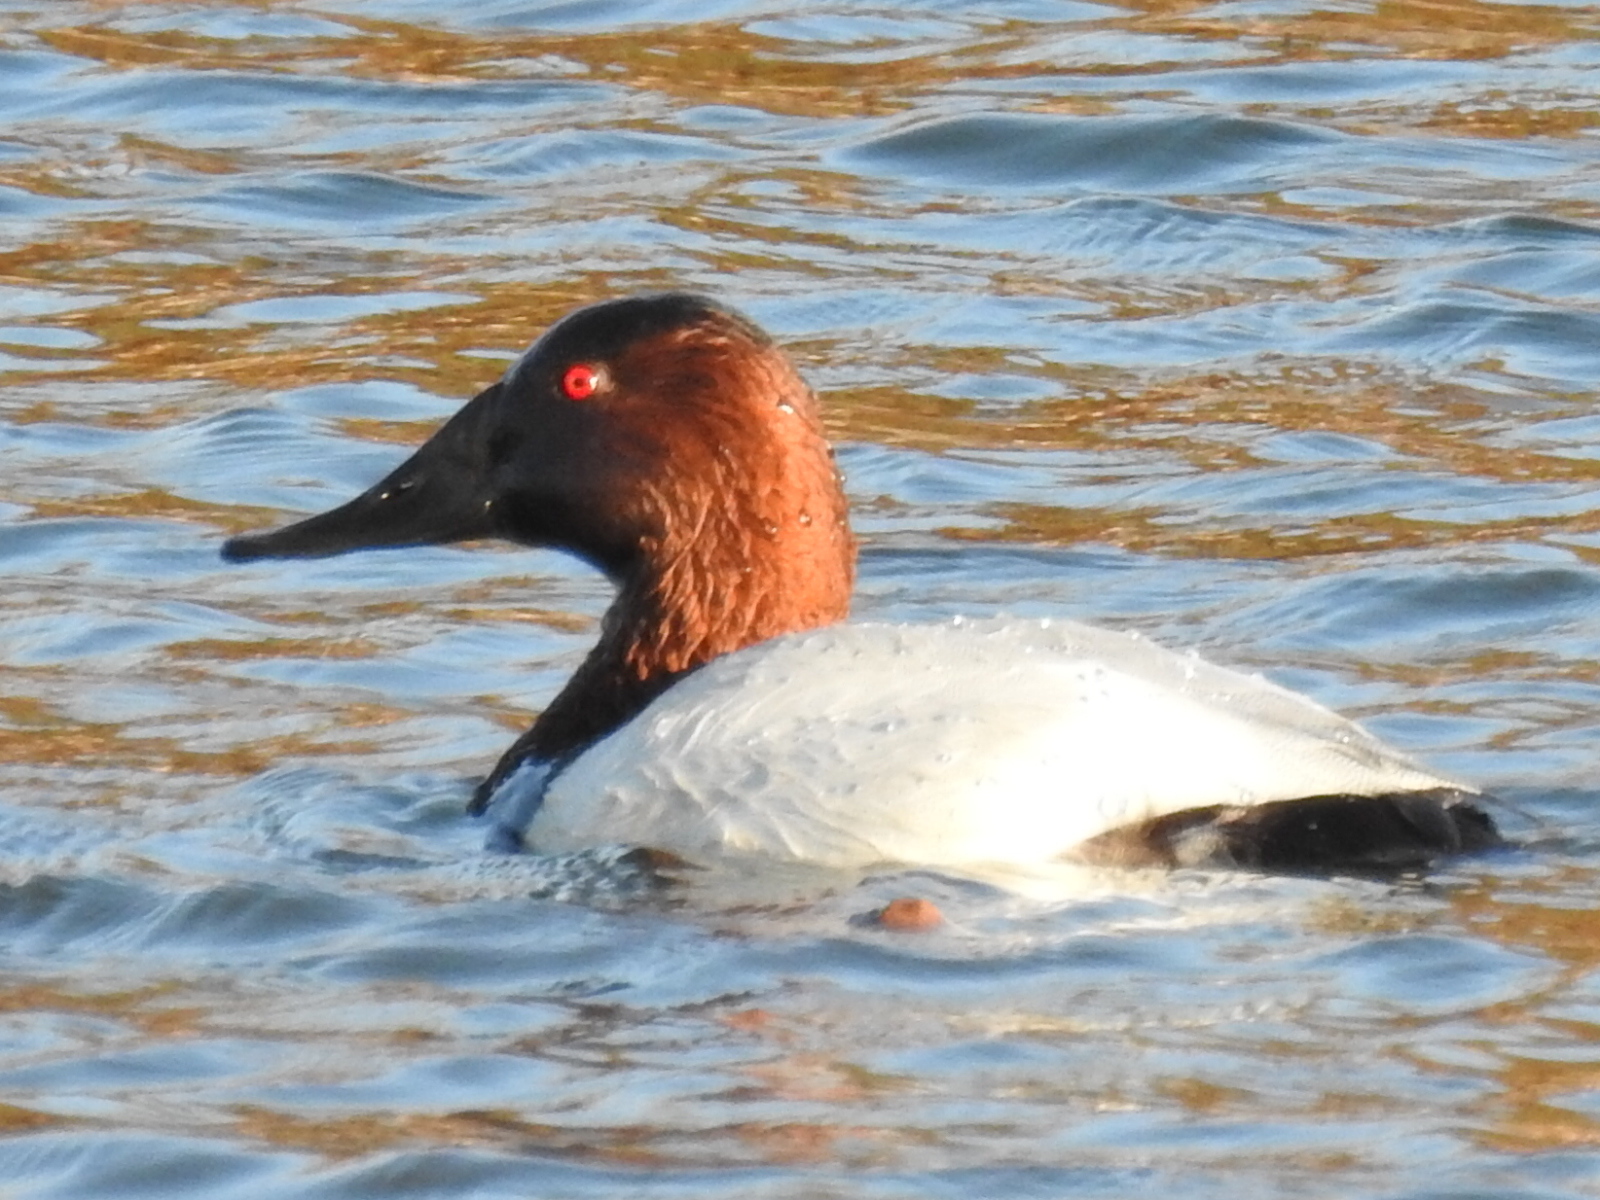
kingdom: Animalia
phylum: Chordata
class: Aves
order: Anseriformes
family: Anatidae
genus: Aythya
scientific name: Aythya valisineria
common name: Canvasback
